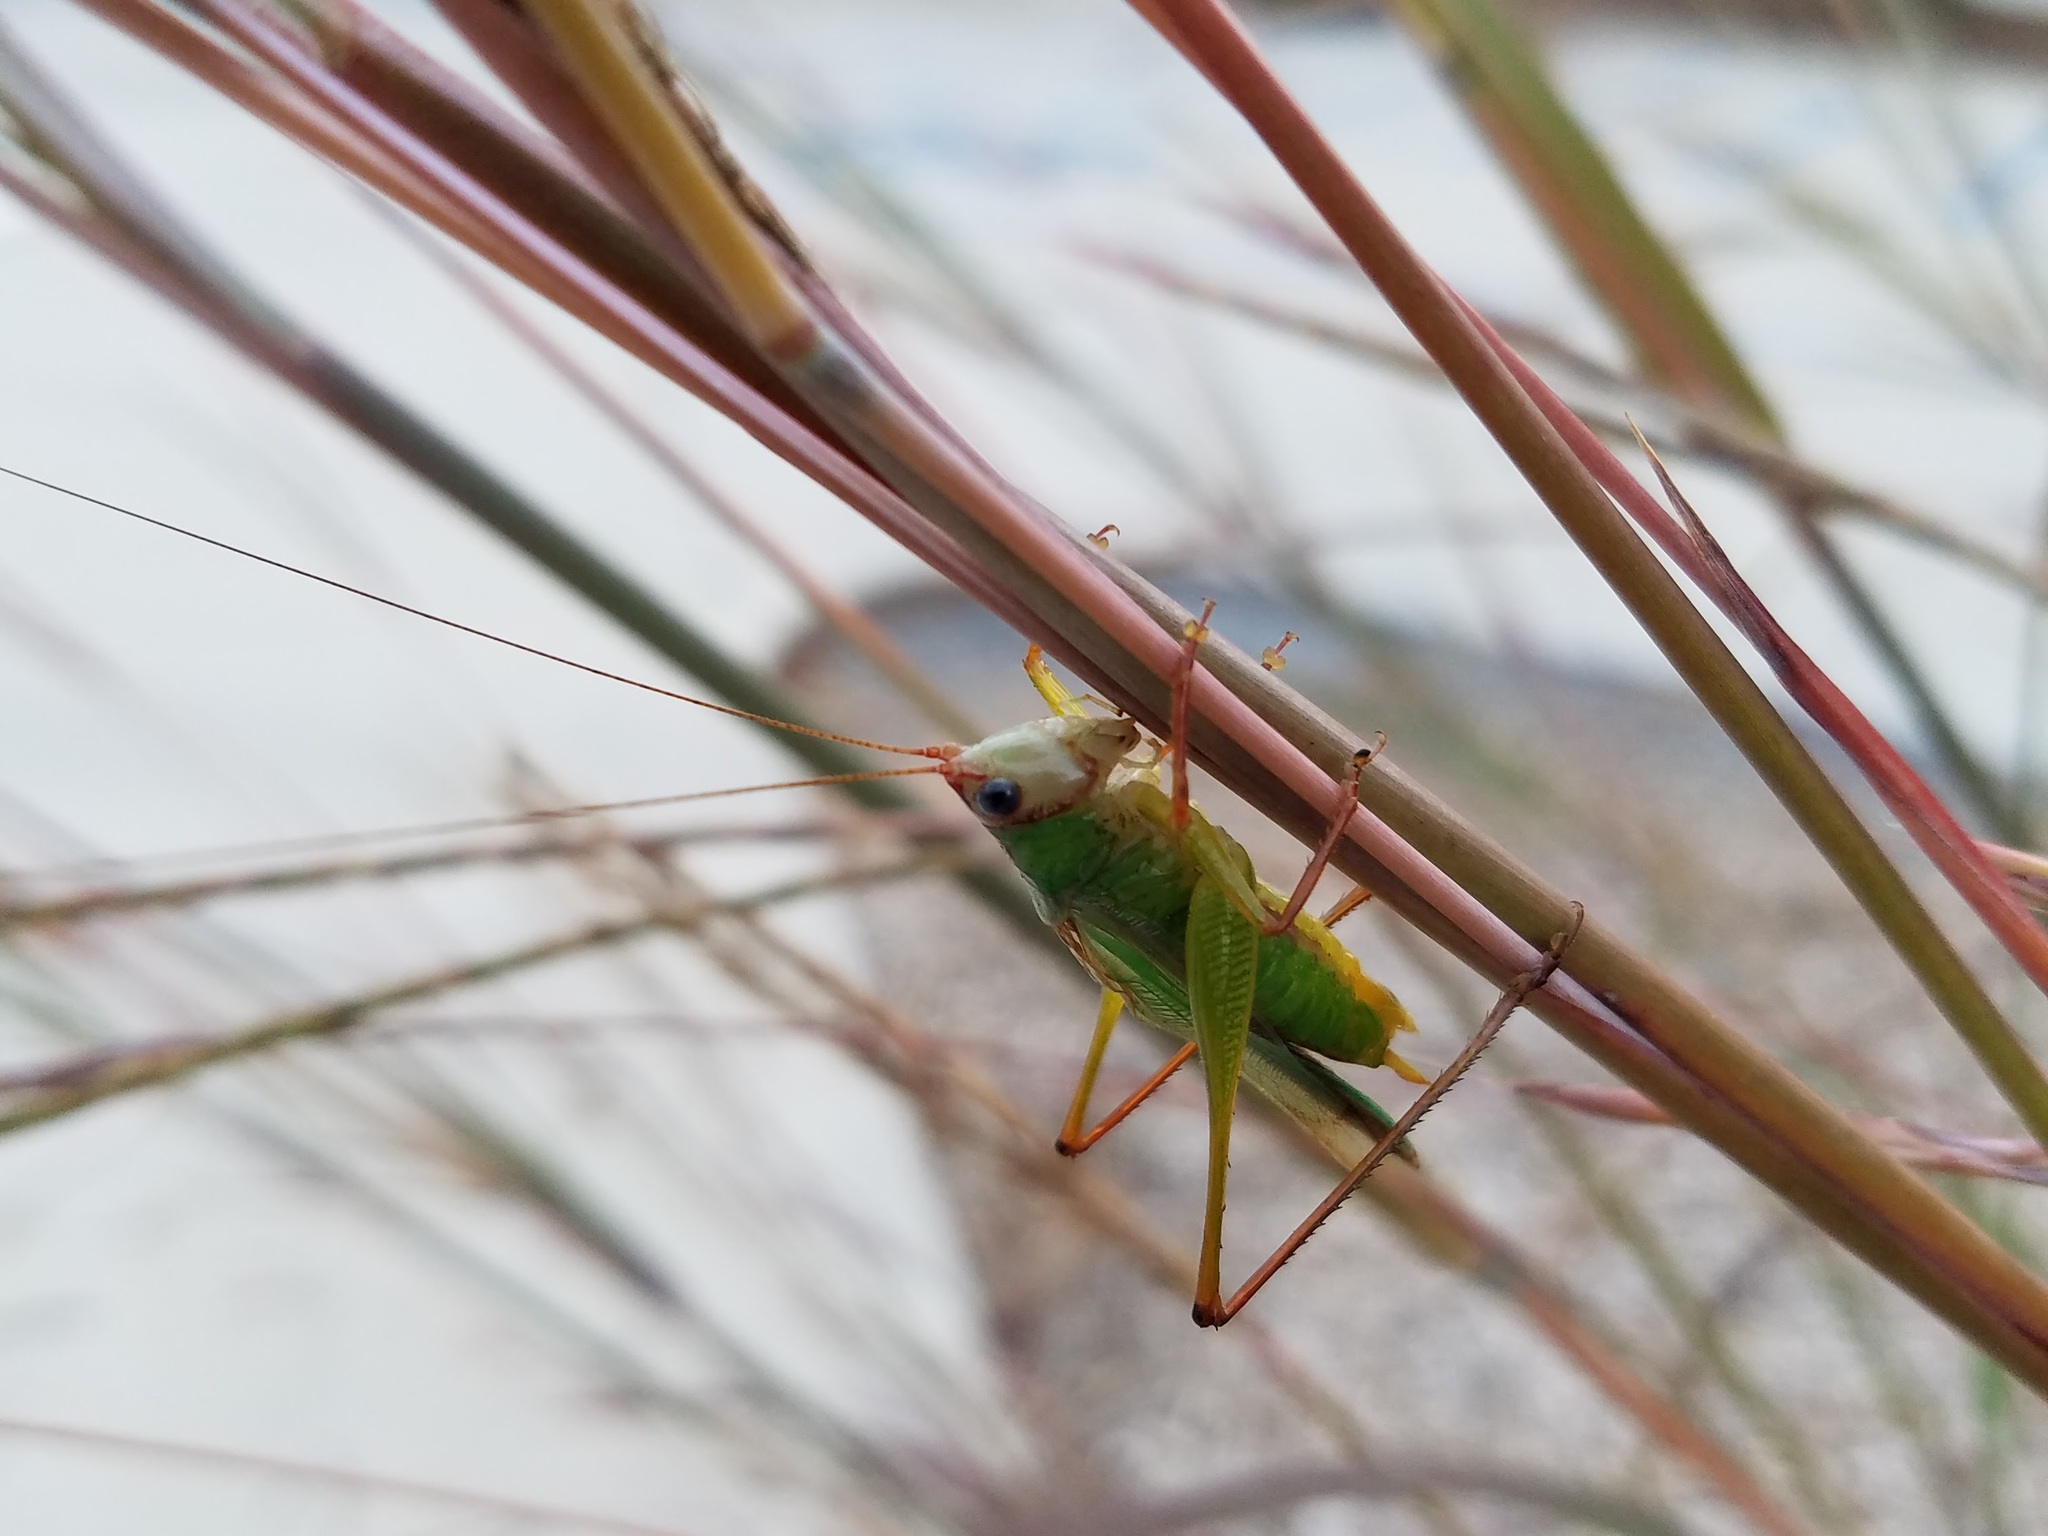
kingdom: Animalia
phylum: Arthropoda
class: Insecta
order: Orthoptera
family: Tettigoniidae
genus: Orchelimum
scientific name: Orchelimum pulchellum
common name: Handsome meadow katydid
